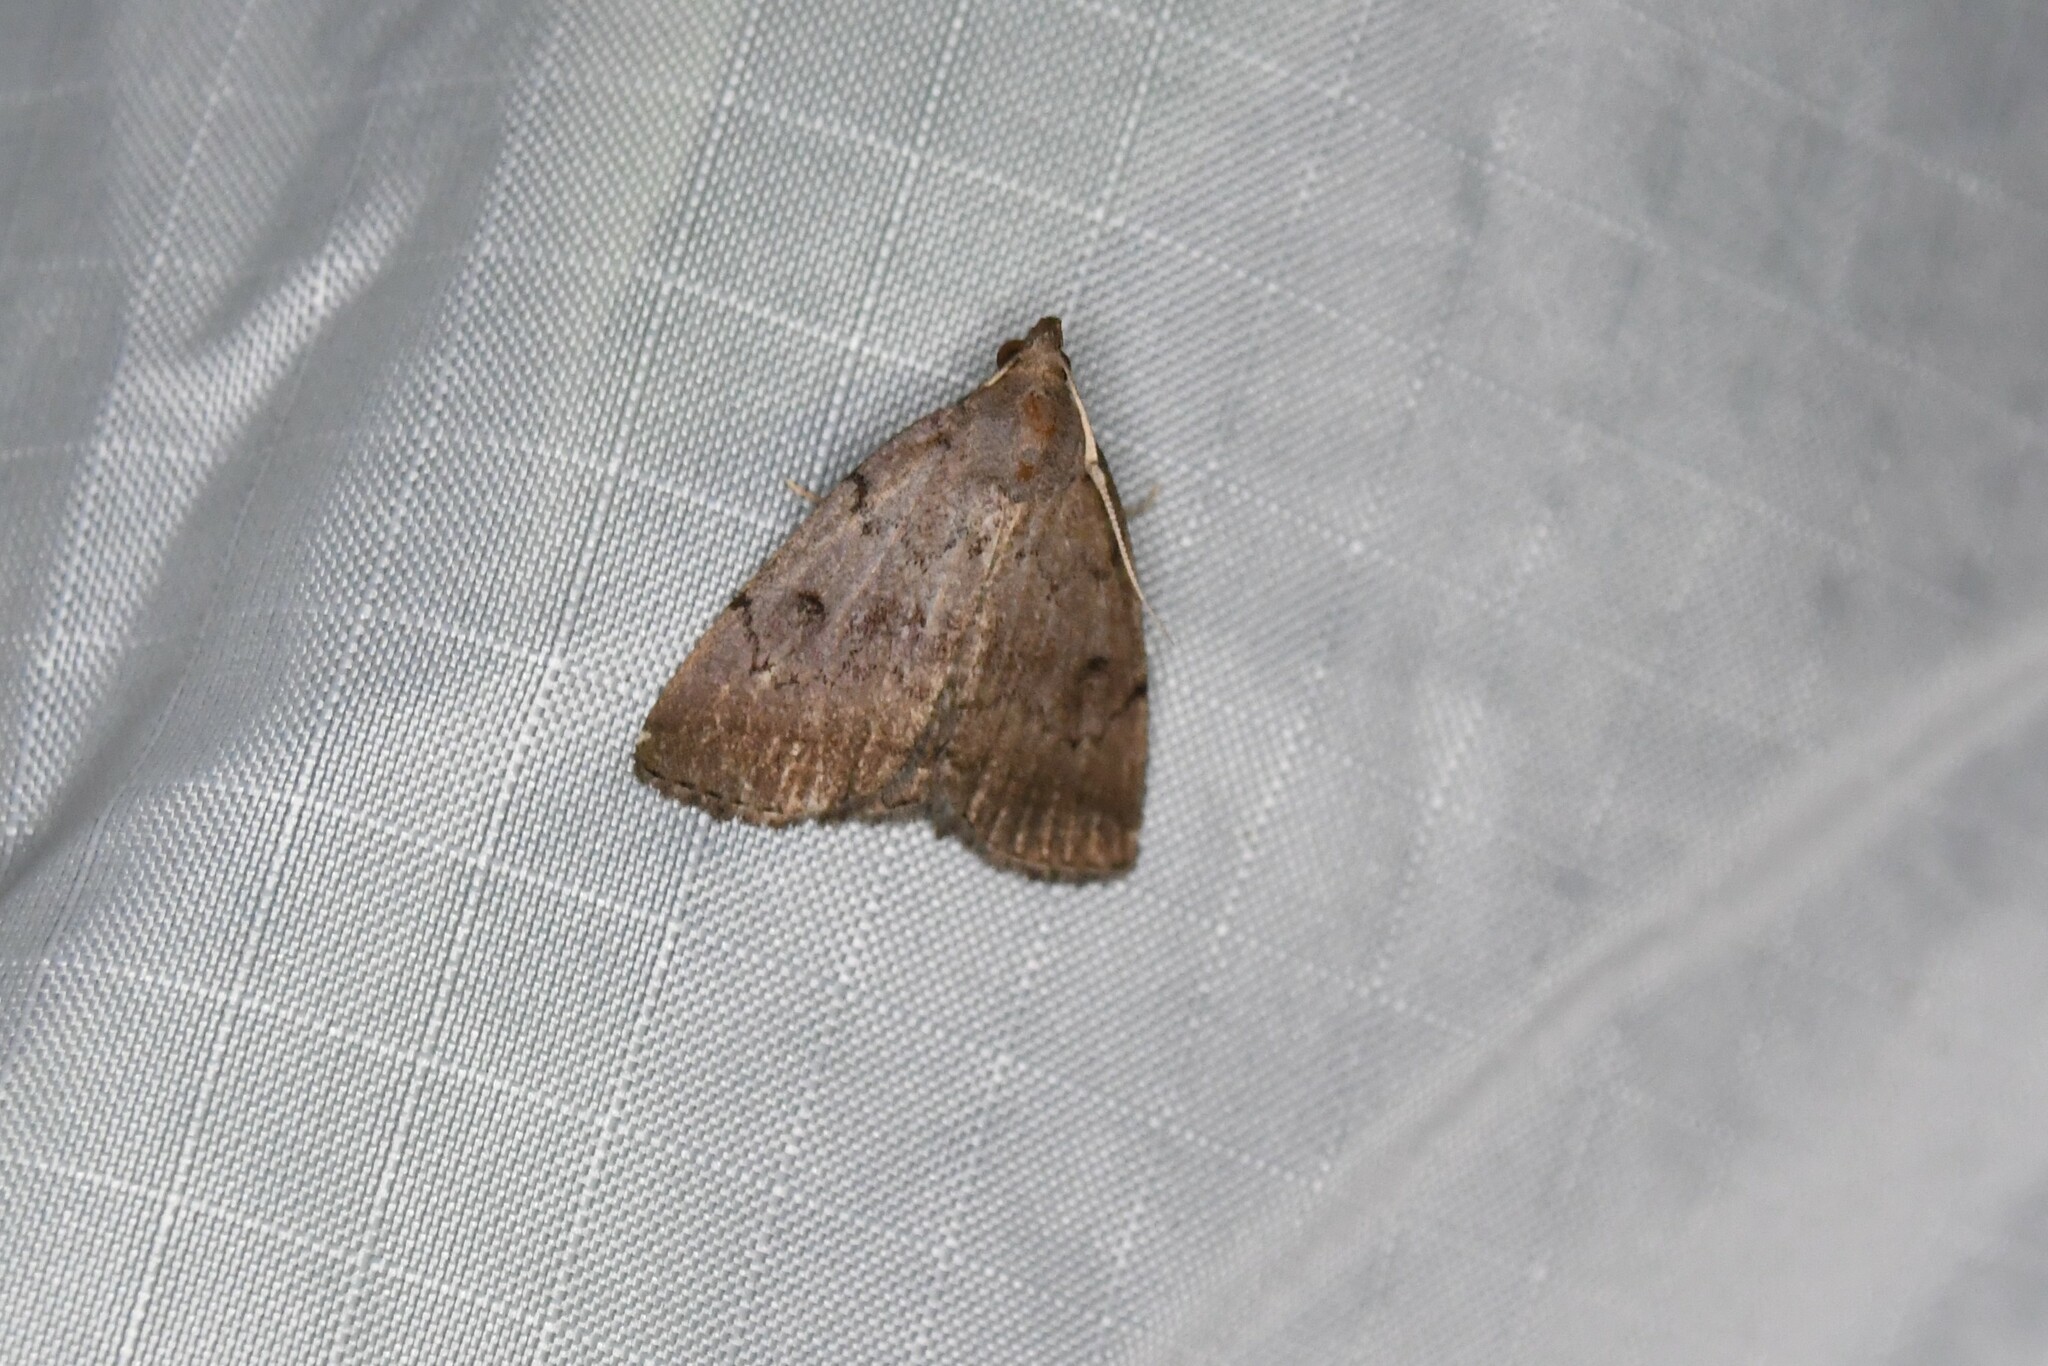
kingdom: Animalia
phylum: Arthropoda
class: Insecta
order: Lepidoptera
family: Erebidae
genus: Zanclognatha
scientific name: Zanclognatha martha
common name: Pine barrens zanclognatha
